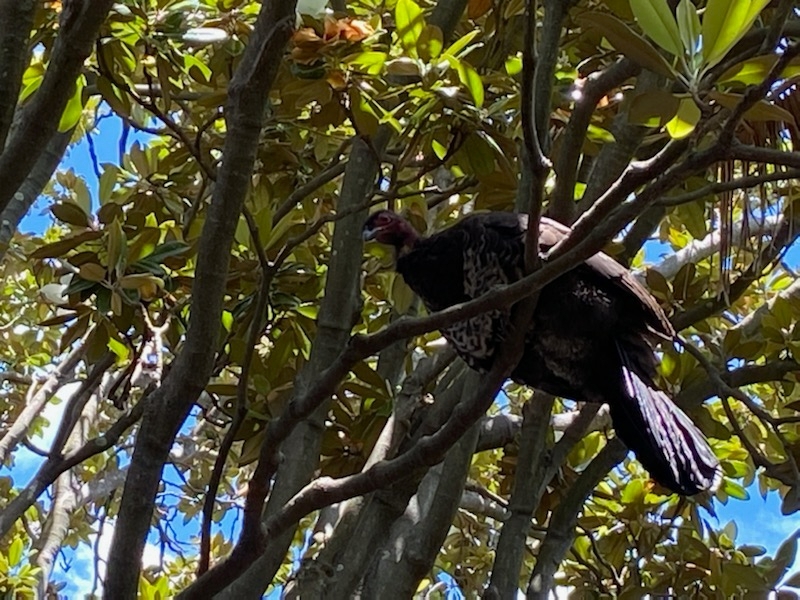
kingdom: Animalia
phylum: Chordata
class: Aves
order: Galliformes
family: Megapodiidae
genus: Alectura
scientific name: Alectura lathami
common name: Australian brushturkey
